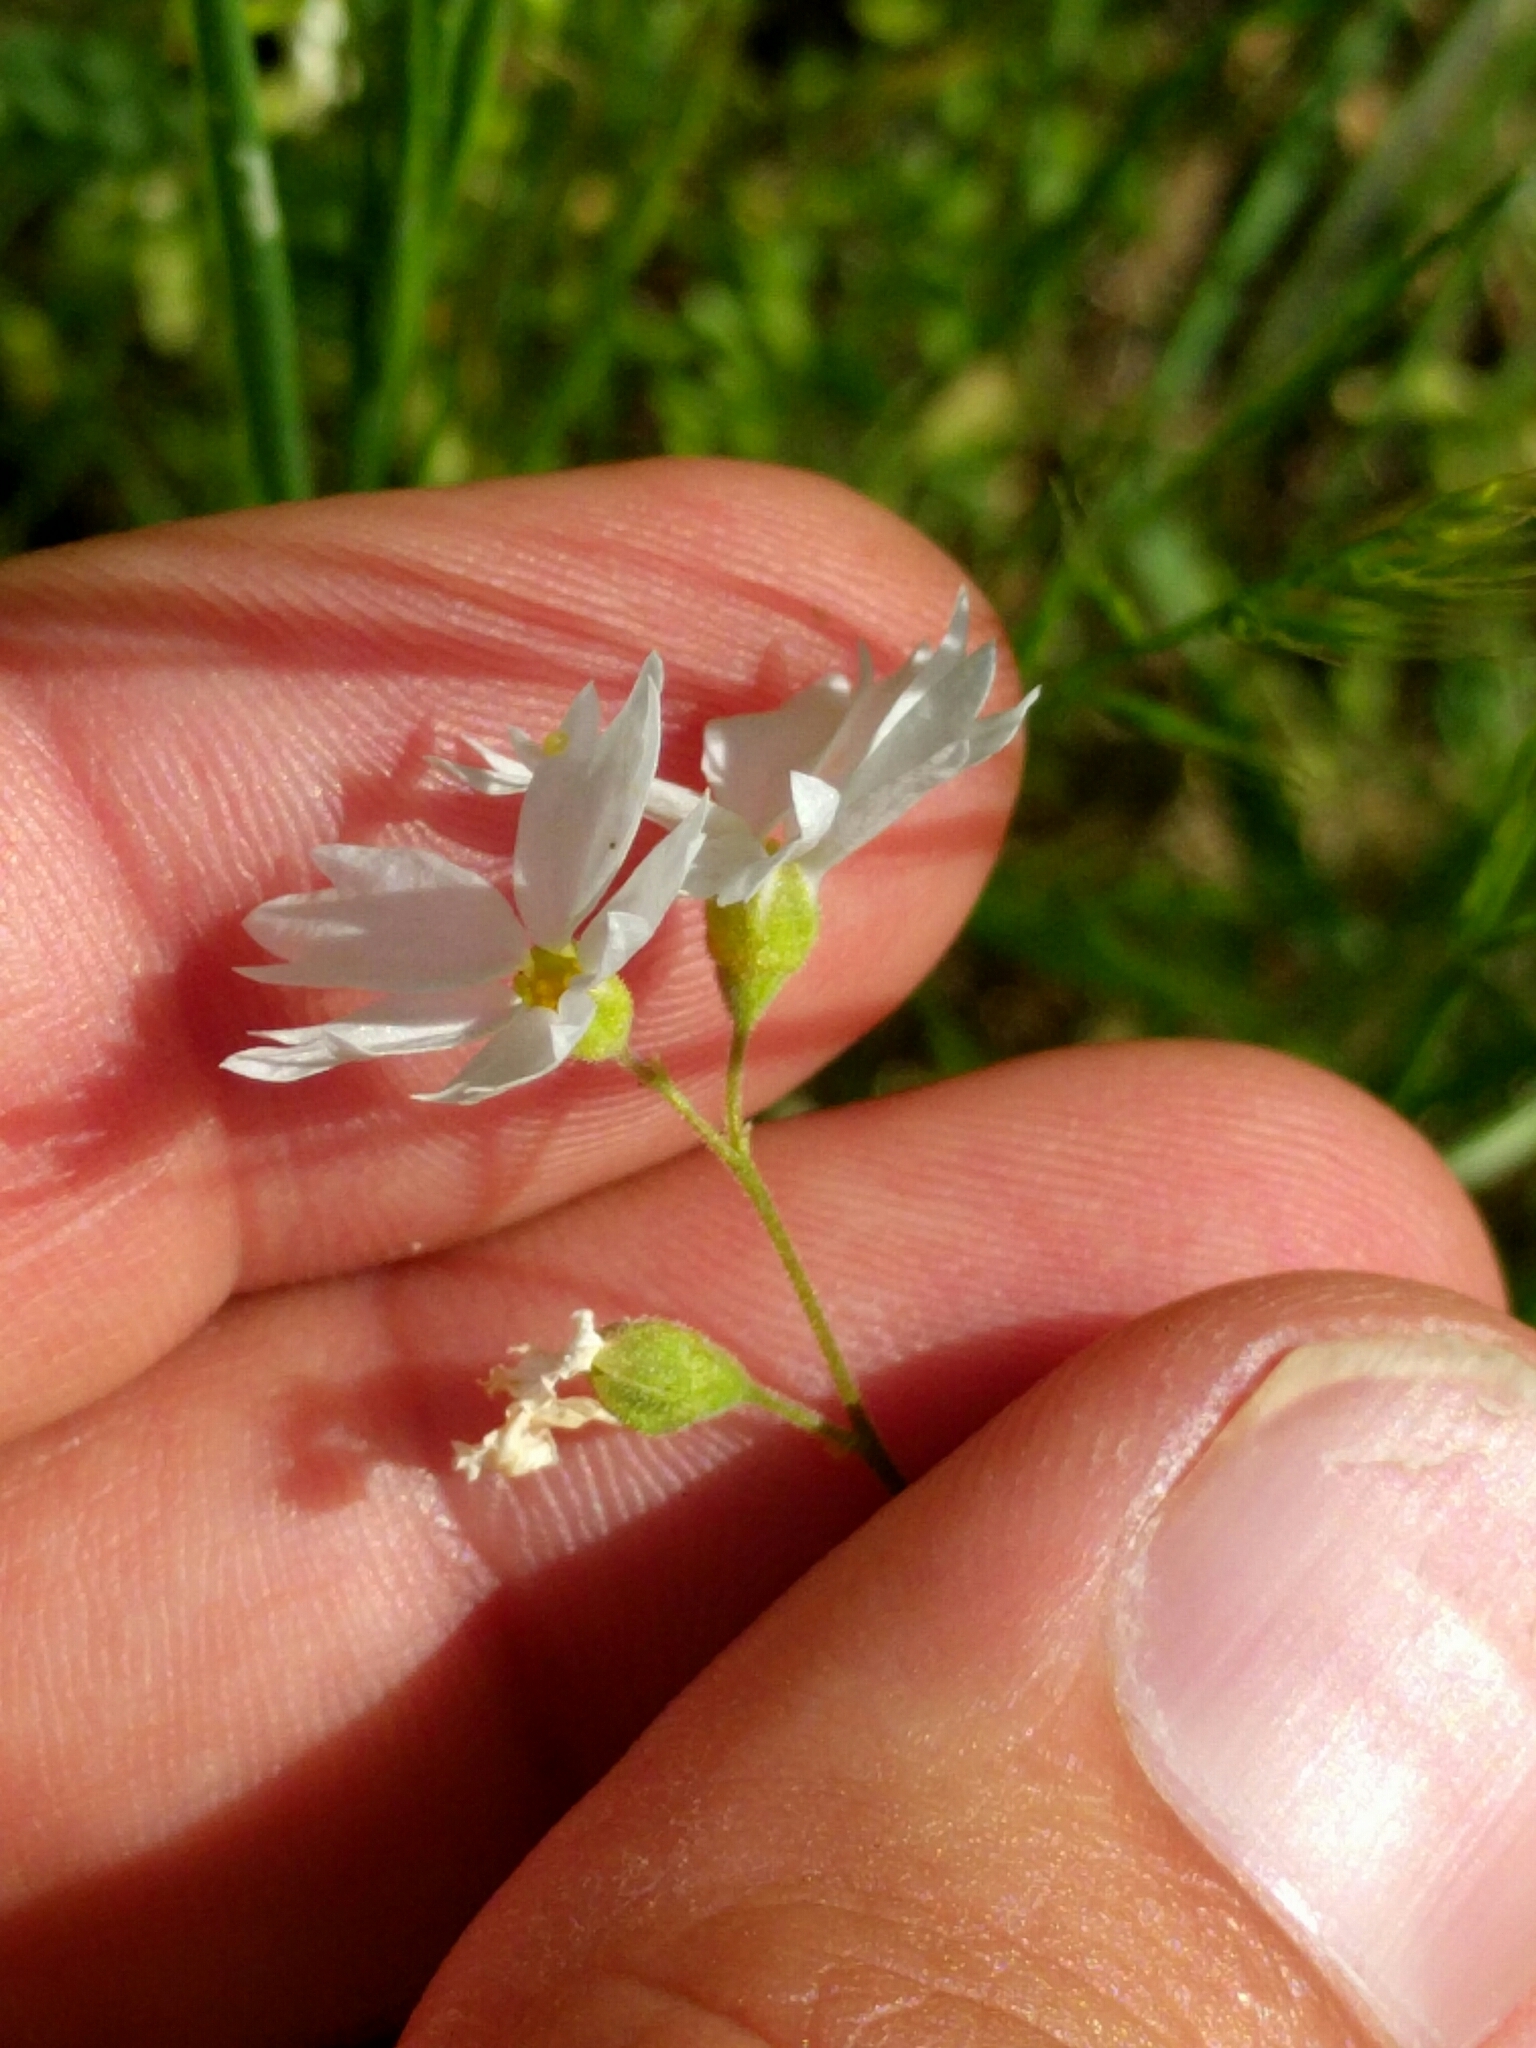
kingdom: Plantae
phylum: Tracheophyta
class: Magnoliopsida
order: Saxifragales
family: Saxifragaceae
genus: Lithophragma
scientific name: Lithophragma affine
